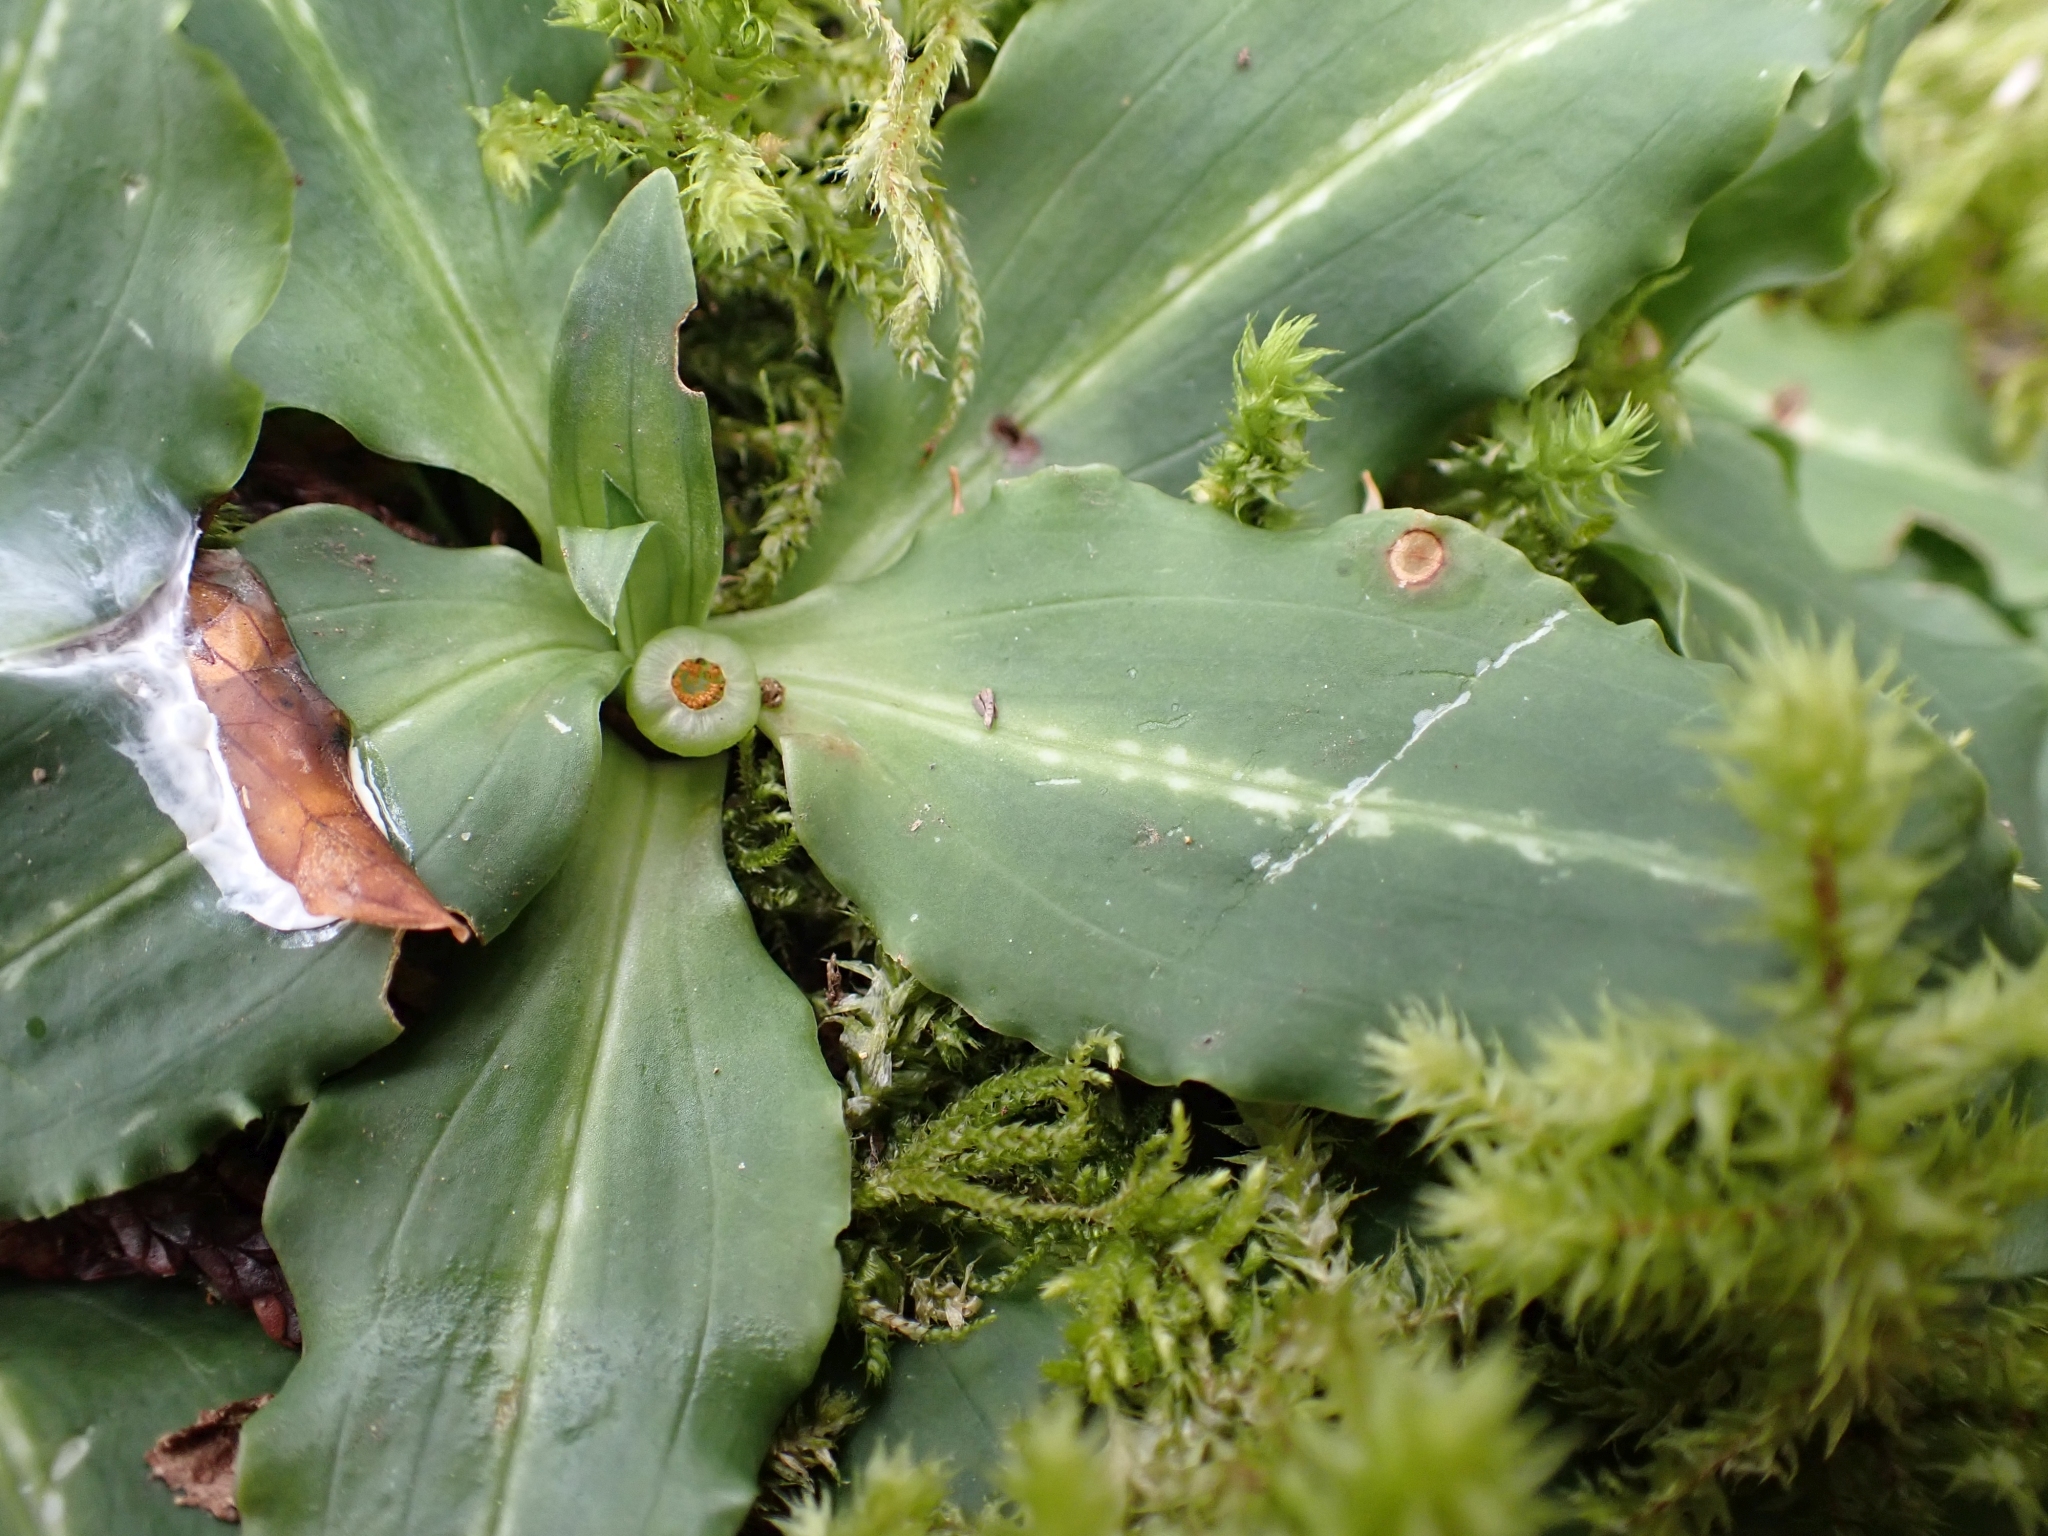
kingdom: Plantae
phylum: Tracheophyta
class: Liliopsida
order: Asparagales
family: Orchidaceae
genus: Goodyera
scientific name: Goodyera oblongifolia
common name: Giant rattlesnake-plantain
